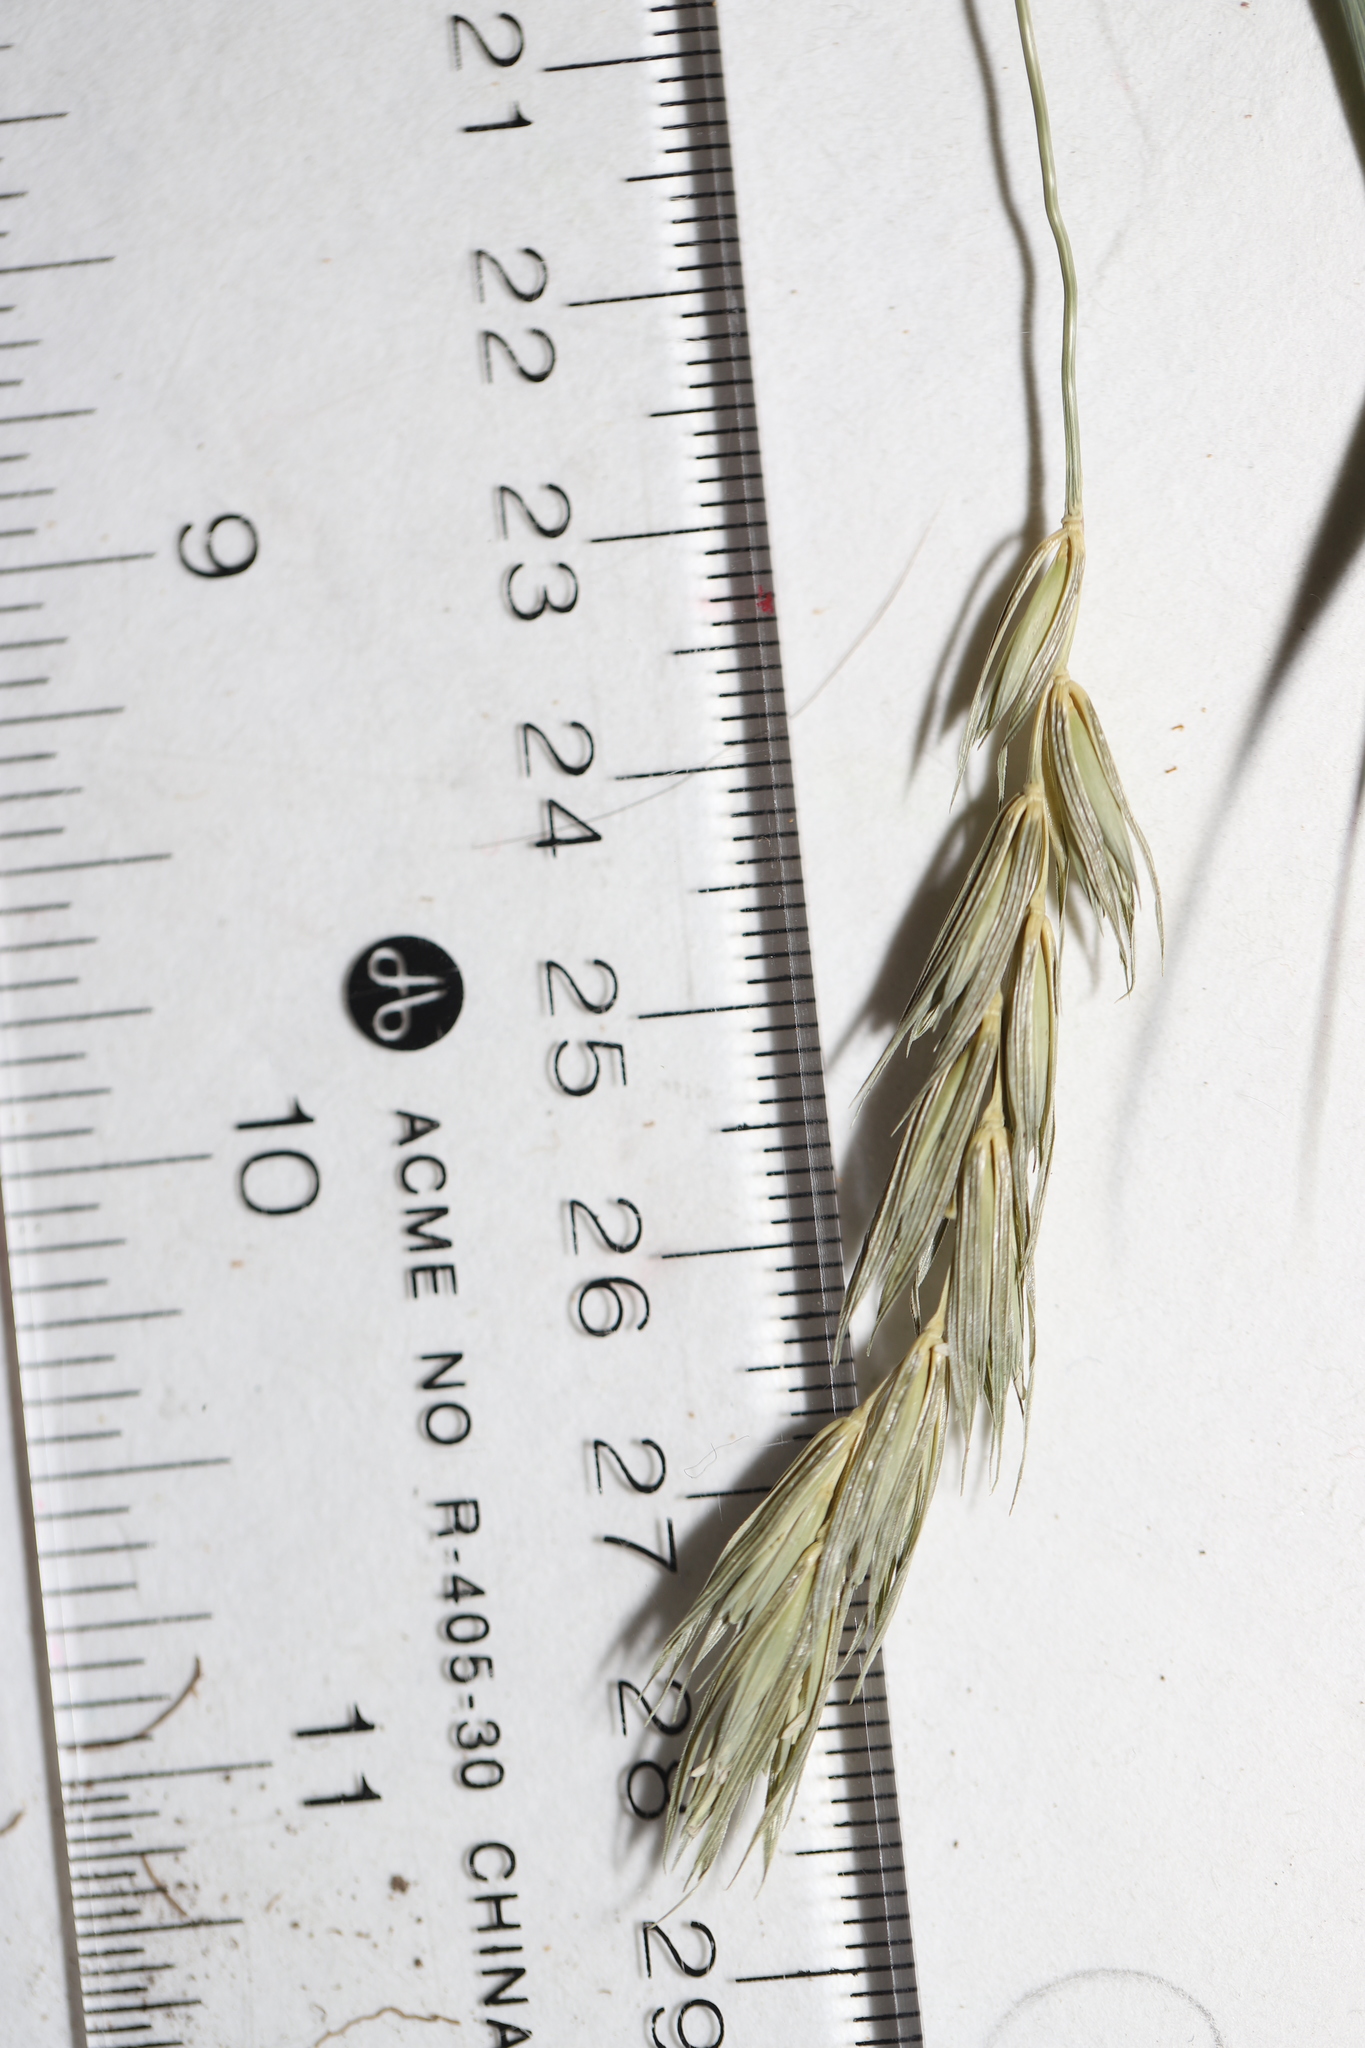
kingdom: Plantae
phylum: Tracheophyta
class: Liliopsida
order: Poales
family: Poaceae
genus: Elymus
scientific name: Elymus curvatus
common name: Awnless wild rye
